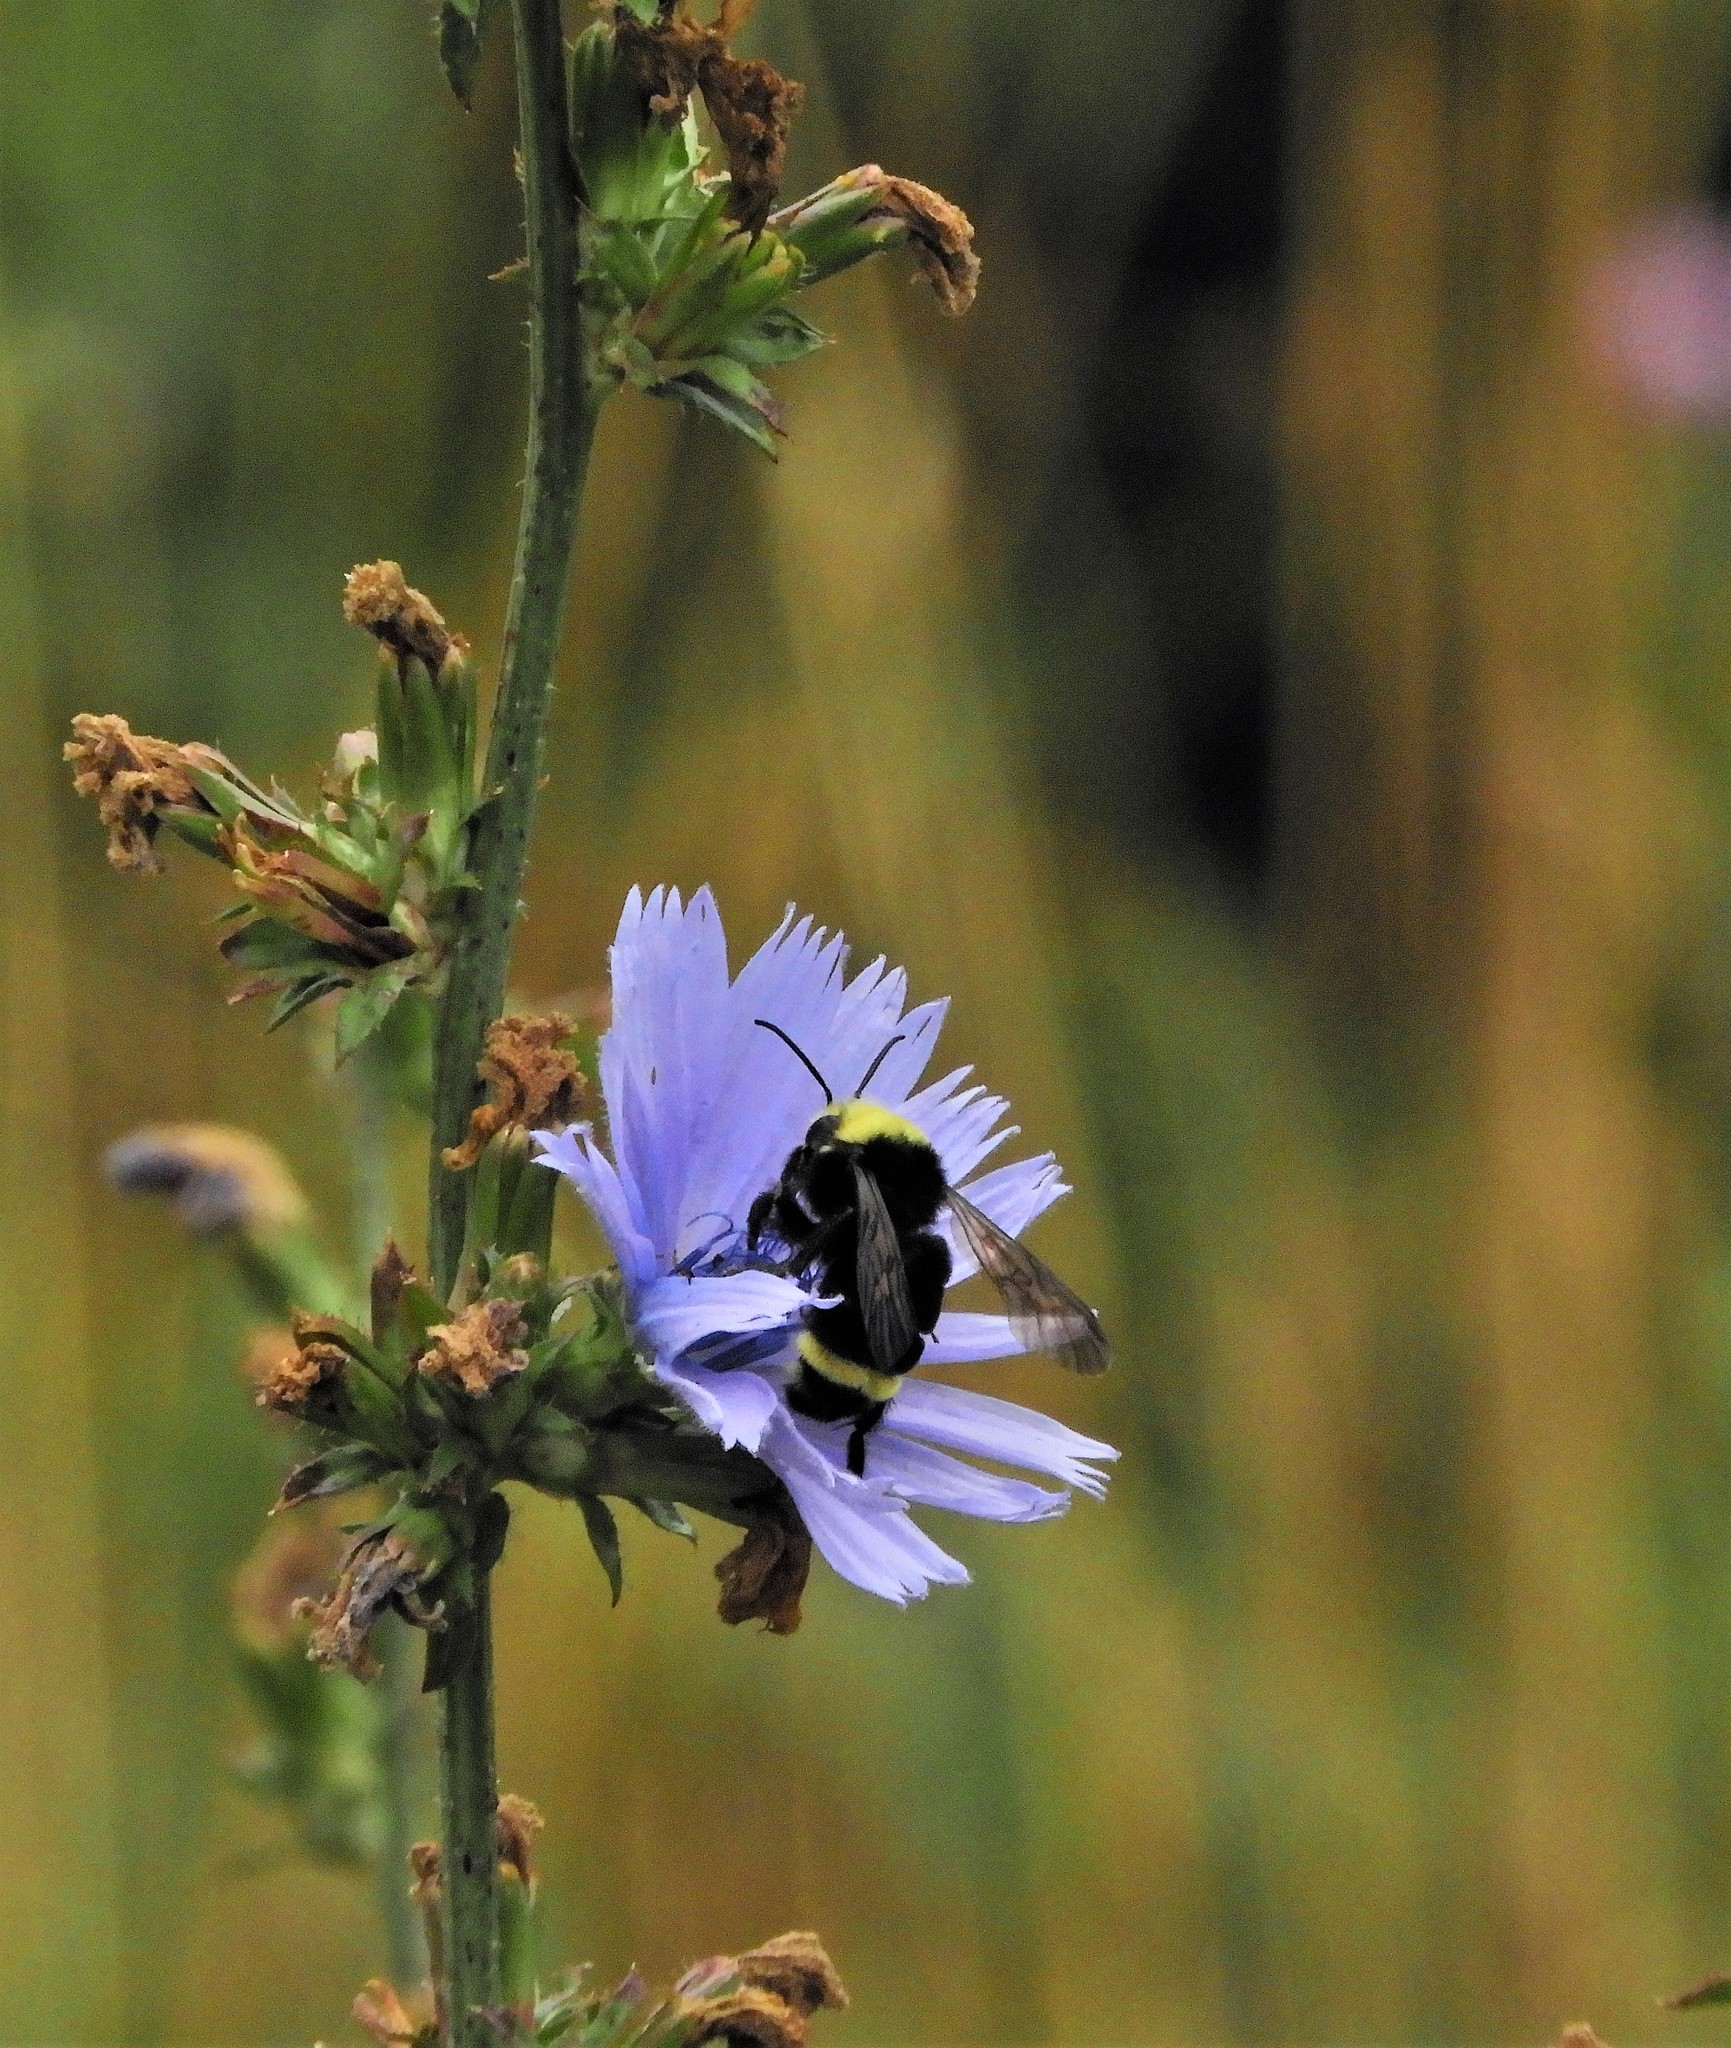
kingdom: Animalia
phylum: Arthropoda
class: Insecta
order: Hymenoptera
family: Apidae
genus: Bombus
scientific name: Bombus vosnesenskii
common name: Vosnesensky bumble bee
